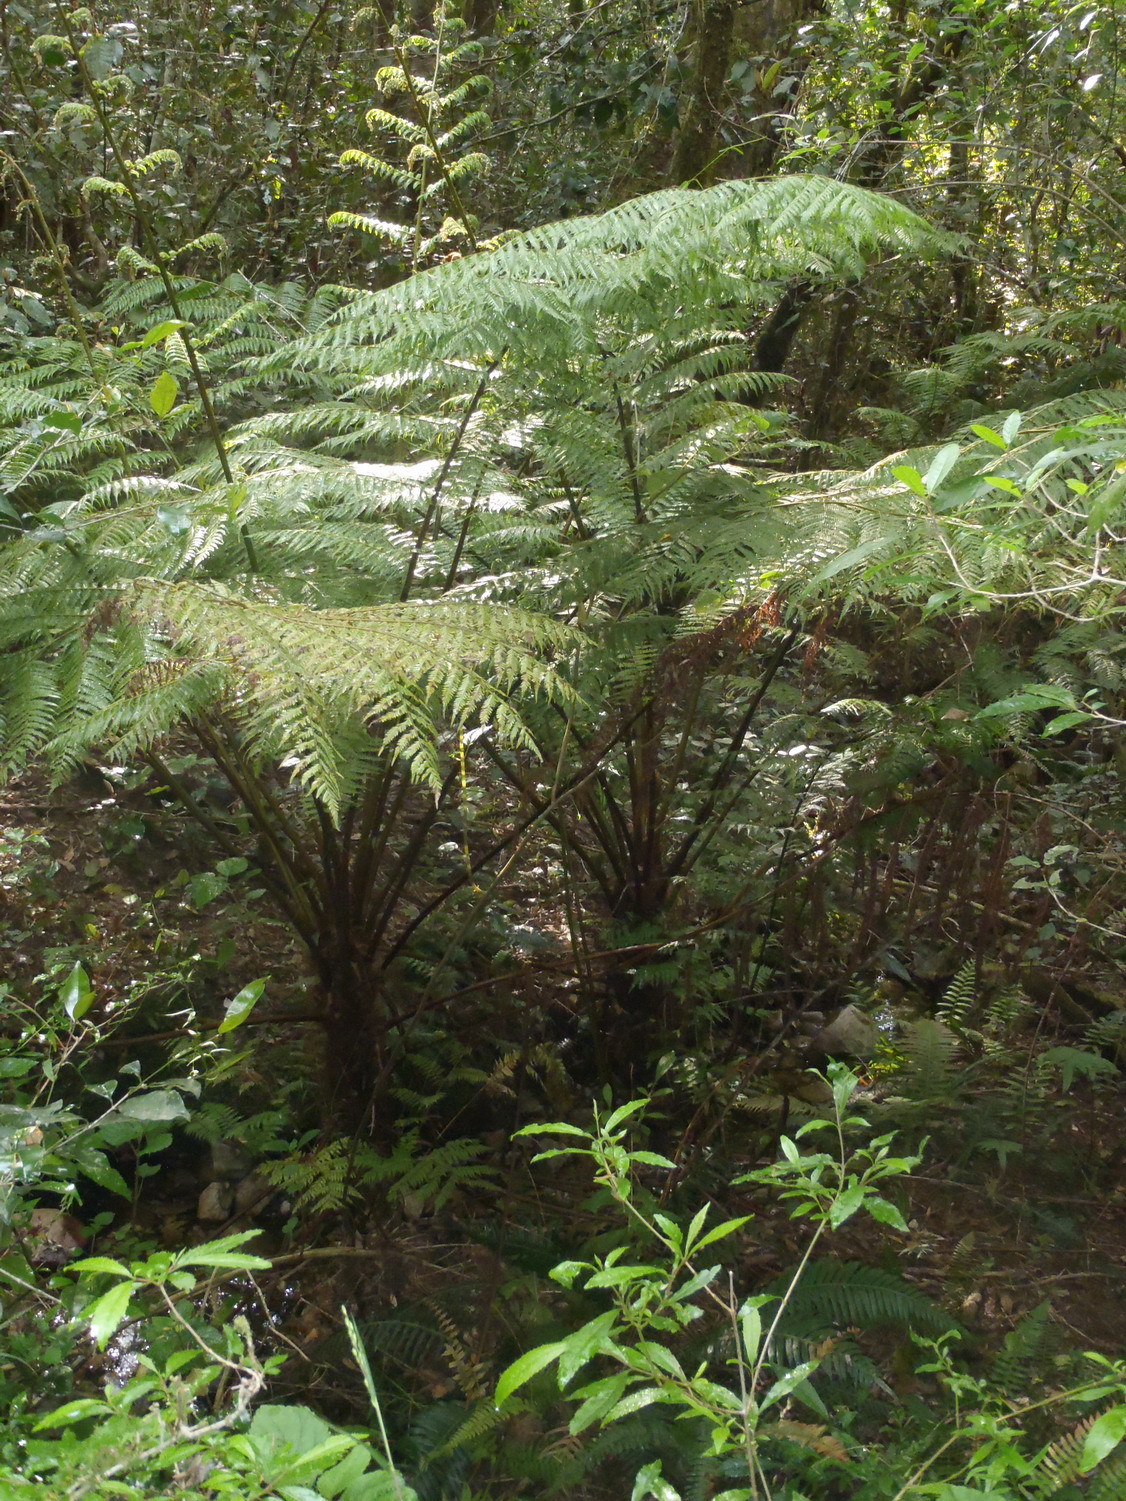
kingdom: Plantae
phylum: Tracheophyta
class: Polypodiopsida
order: Cyatheales
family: Cyatheaceae
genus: Gymnosphaera
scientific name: Gymnosphaera capensis
